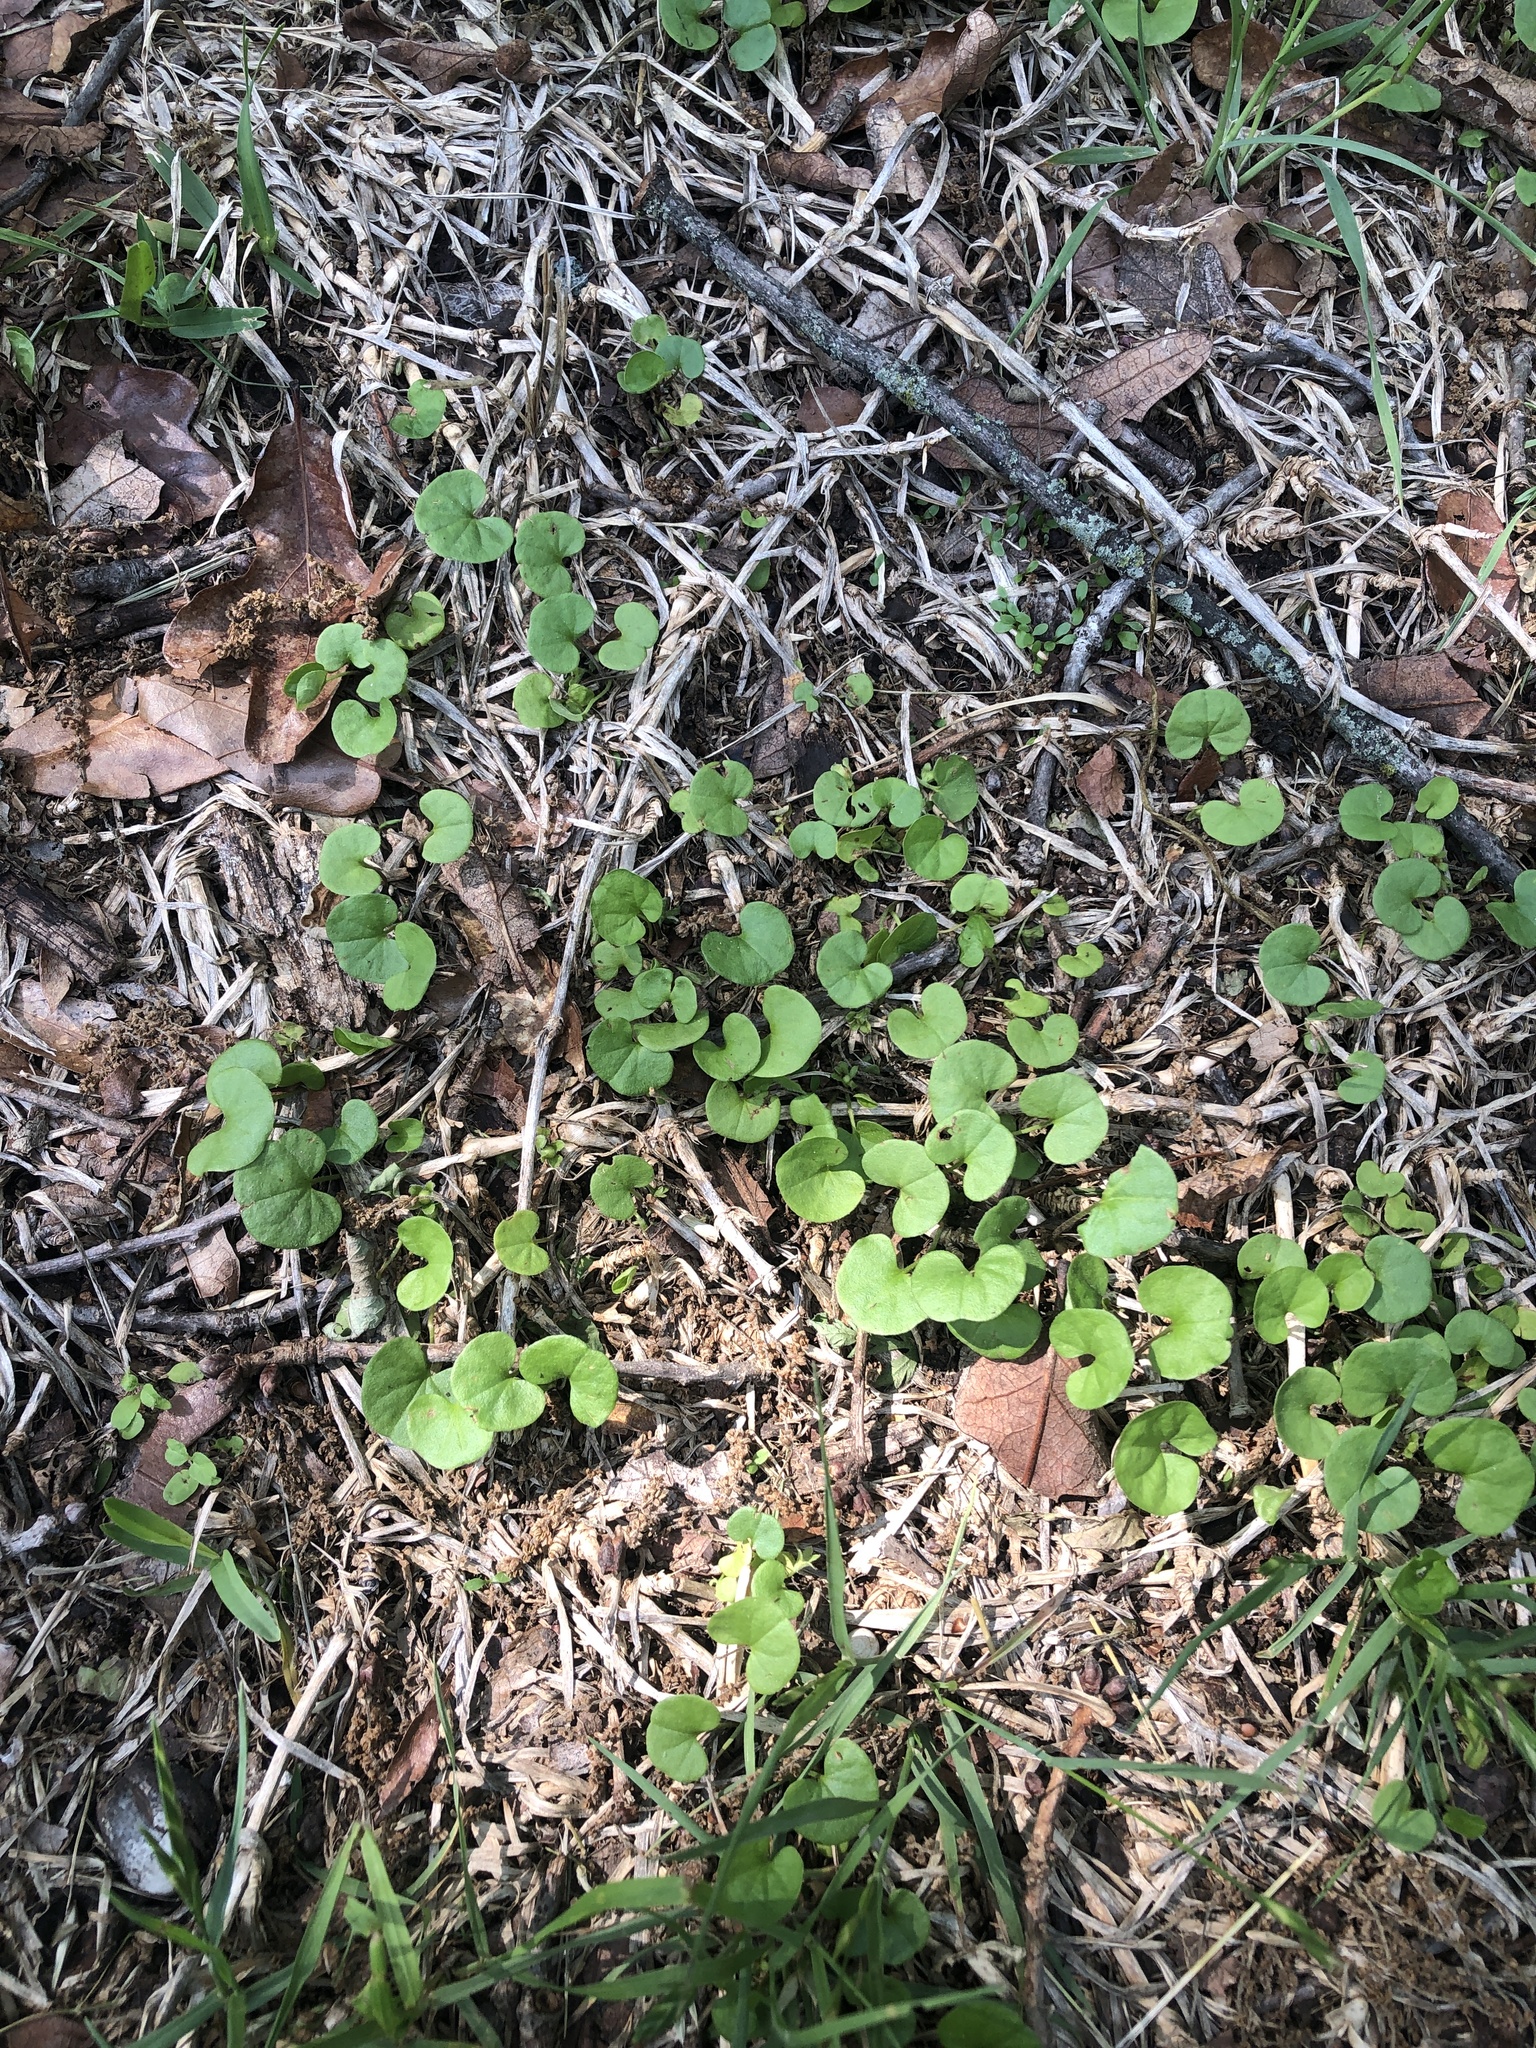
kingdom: Plantae
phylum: Tracheophyta
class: Magnoliopsida
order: Solanales
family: Convolvulaceae
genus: Dichondra
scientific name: Dichondra carolinensis
